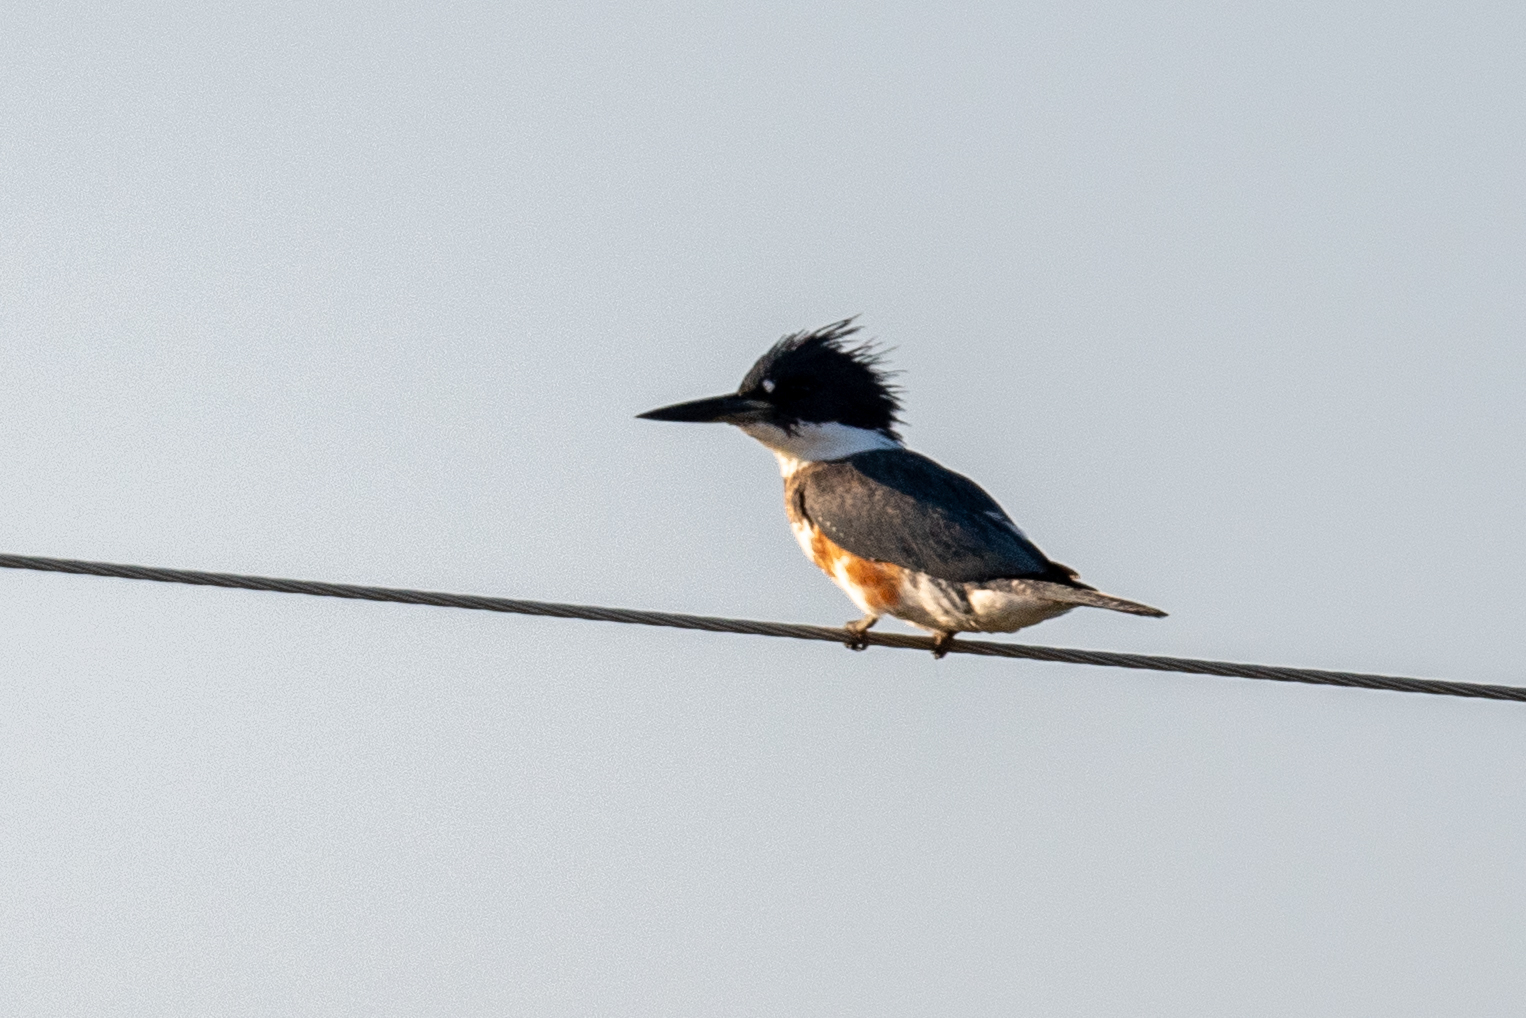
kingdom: Animalia
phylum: Chordata
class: Aves
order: Coraciiformes
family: Alcedinidae
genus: Megaceryle
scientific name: Megaceryle alcyon
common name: Belted kingfisher
